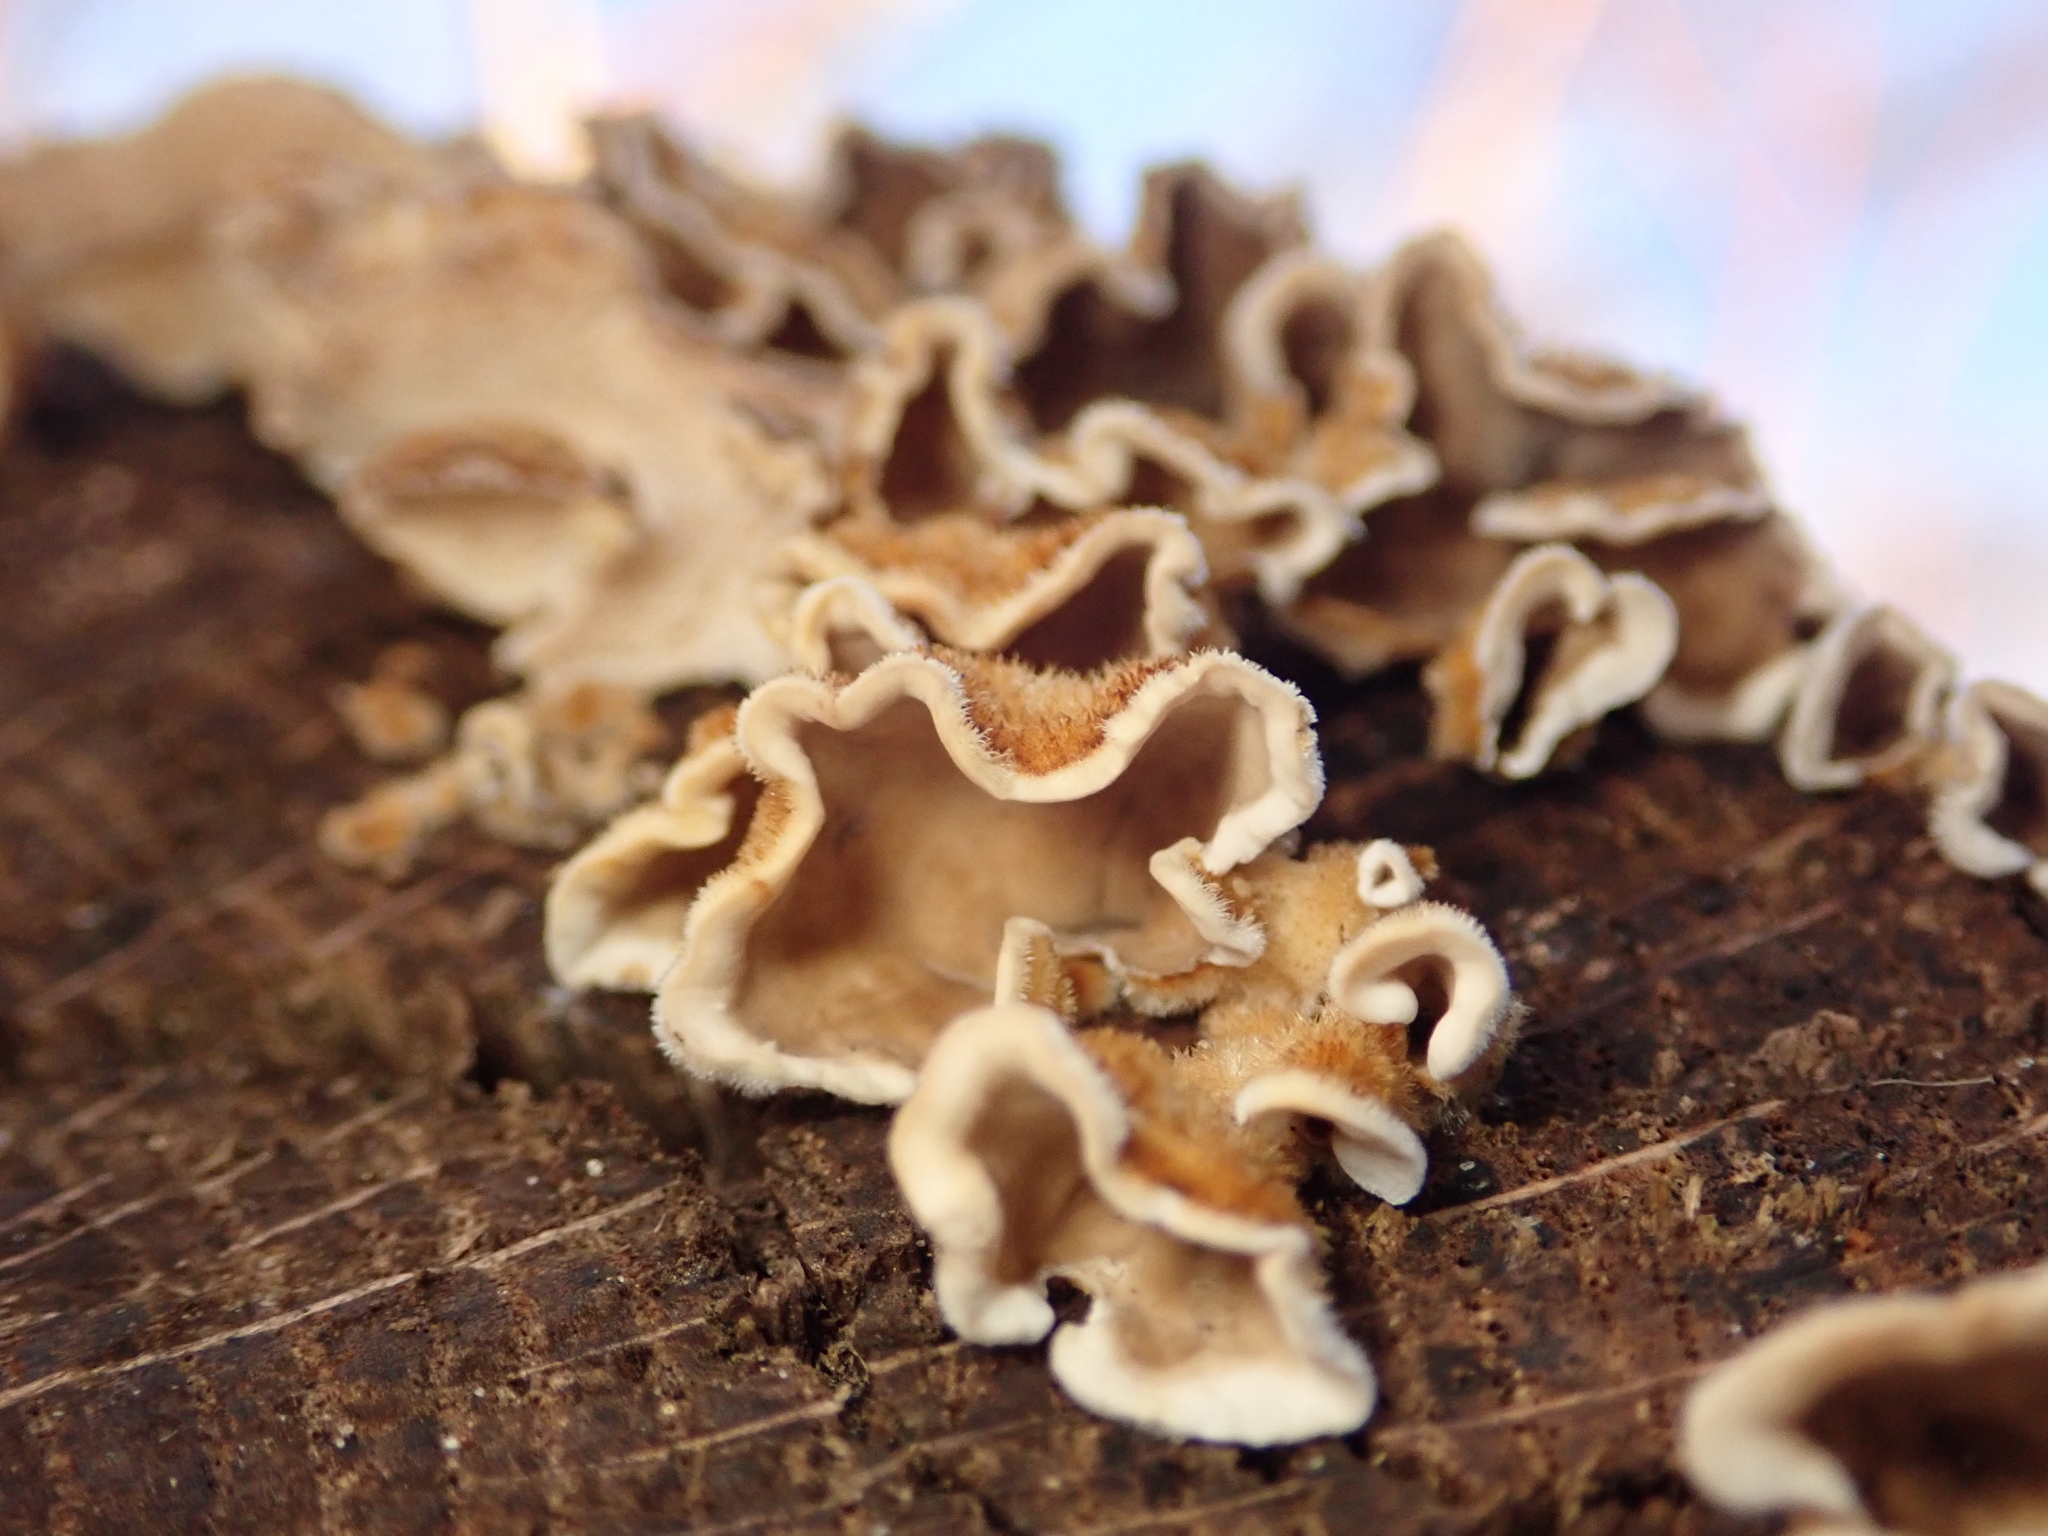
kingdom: Fungi
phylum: Basidiomycota
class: Agaricomycetes
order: Russulales
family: Stereaceae
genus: Stereum
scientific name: Stereum hirsutum
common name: Hairy curtain crust
